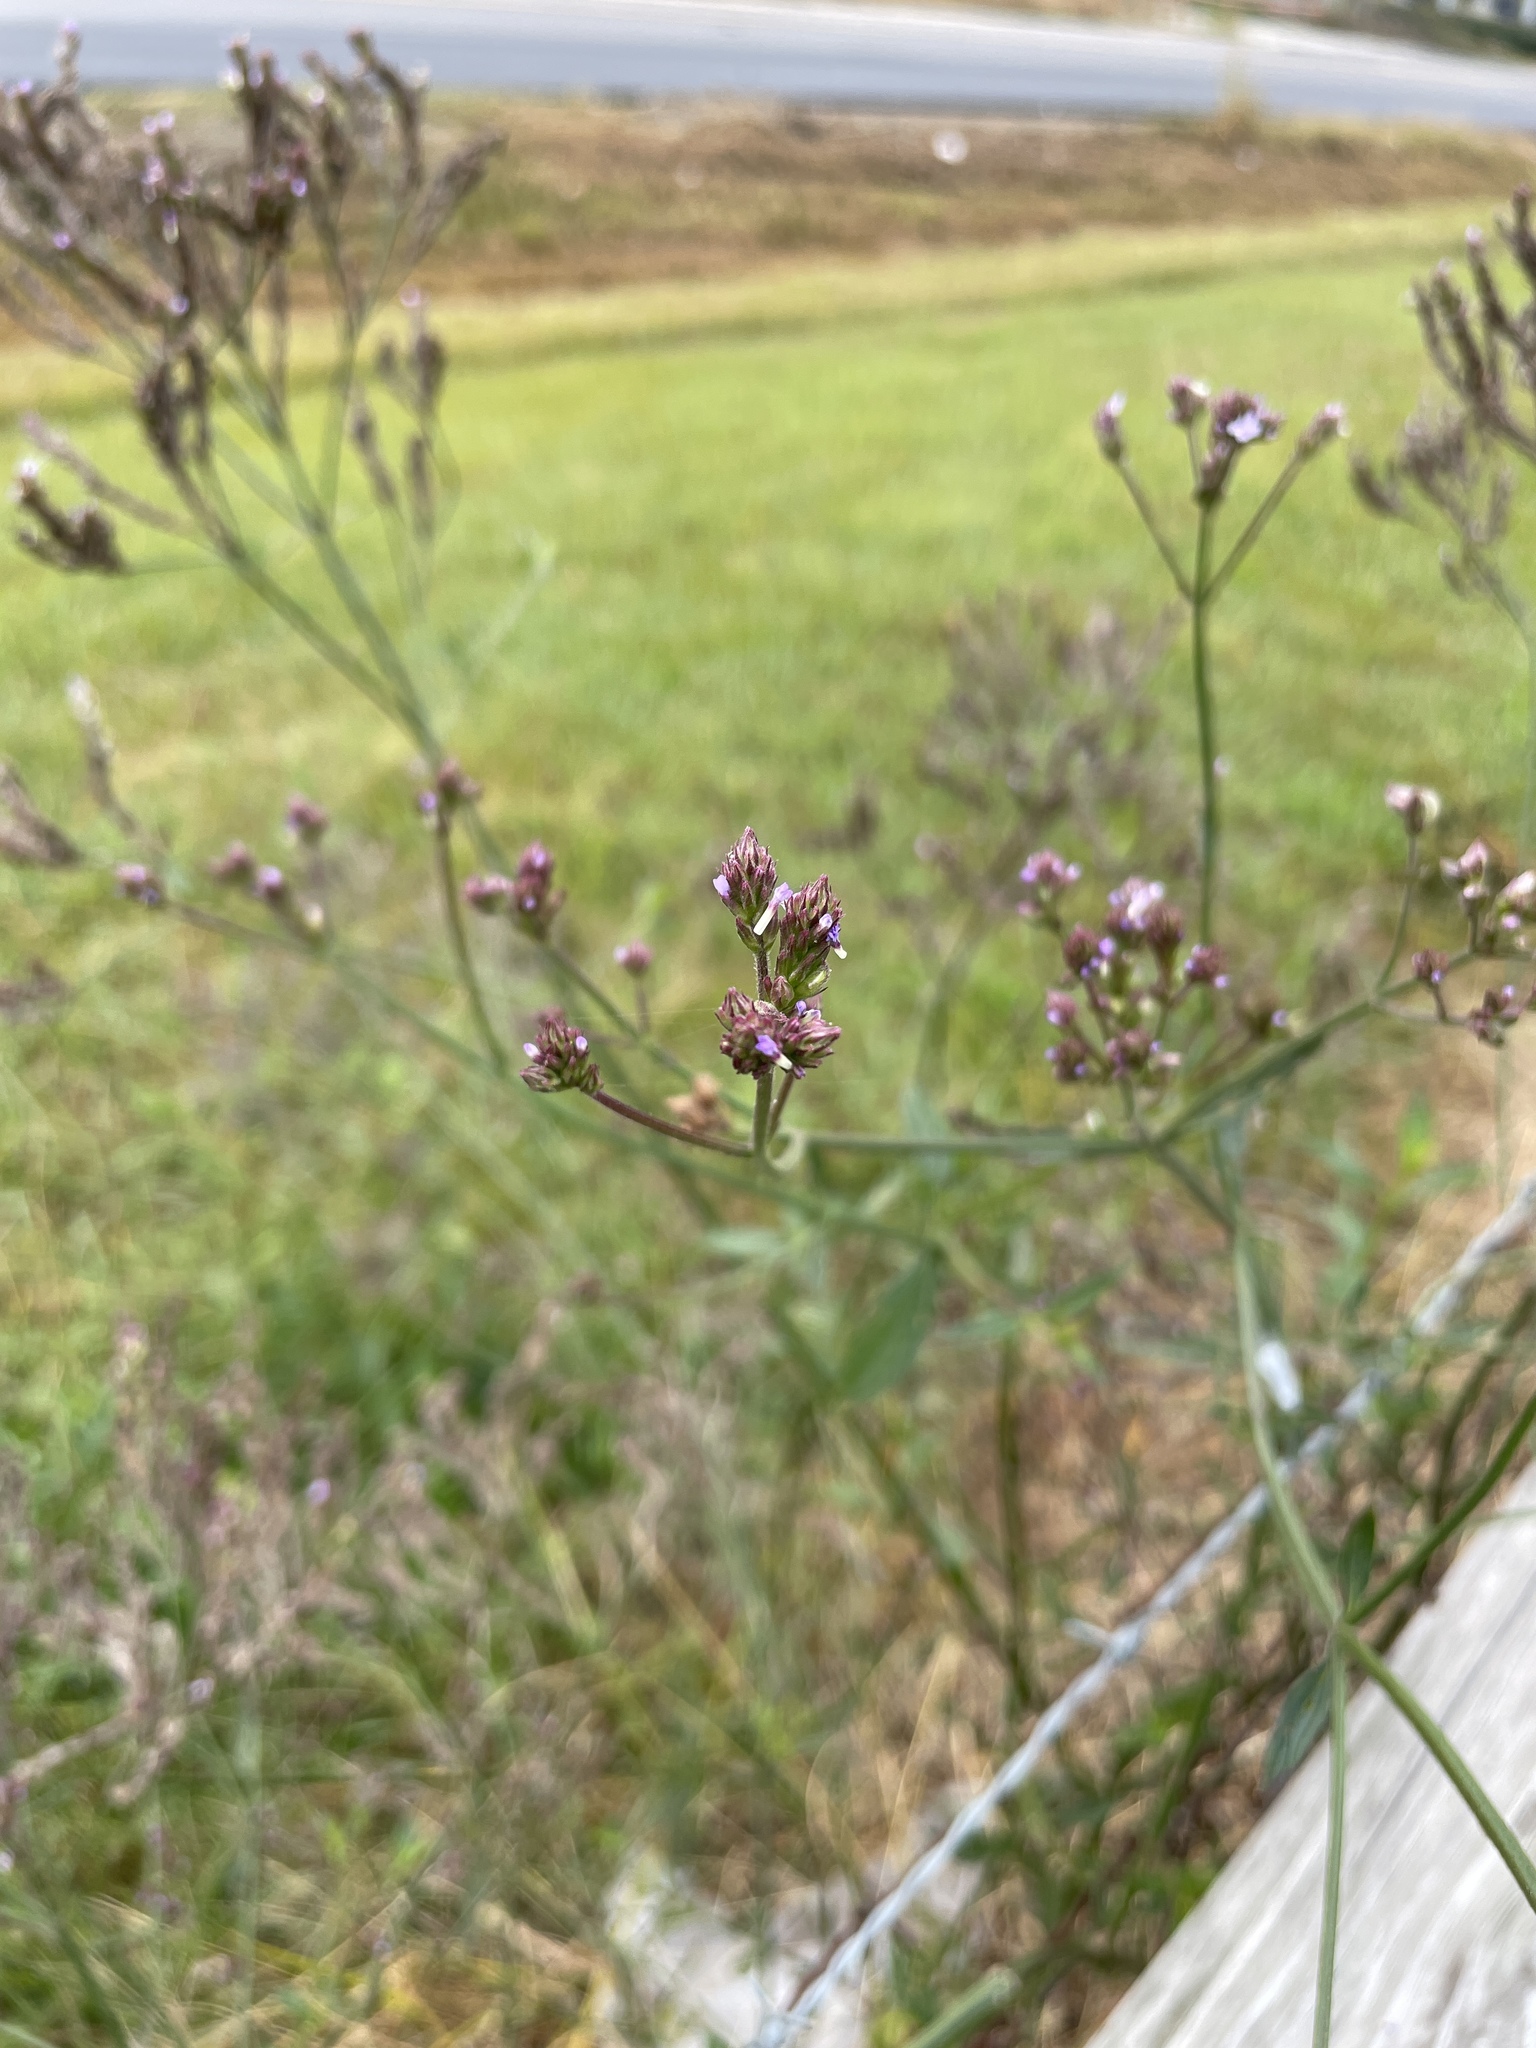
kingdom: Plantae
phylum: Tracheophyta
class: Magnoliopsida
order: Lamiales
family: Verbenaceae
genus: Verbena
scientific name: Verbena brasiliensis
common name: Brazilian vervain
